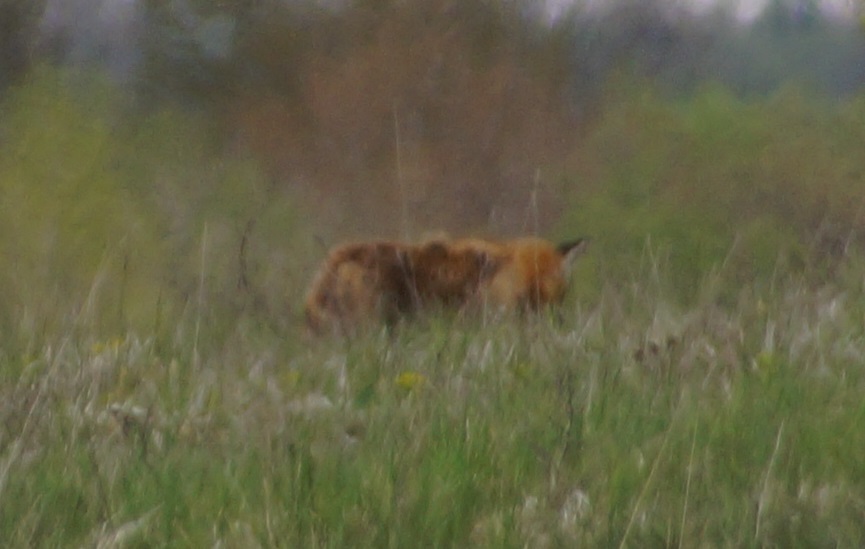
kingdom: Animalia
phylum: Chordata
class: Mammalia
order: Carnivora
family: Canidae
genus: Vulpes
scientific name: Vulpes vulpes
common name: Red fox
